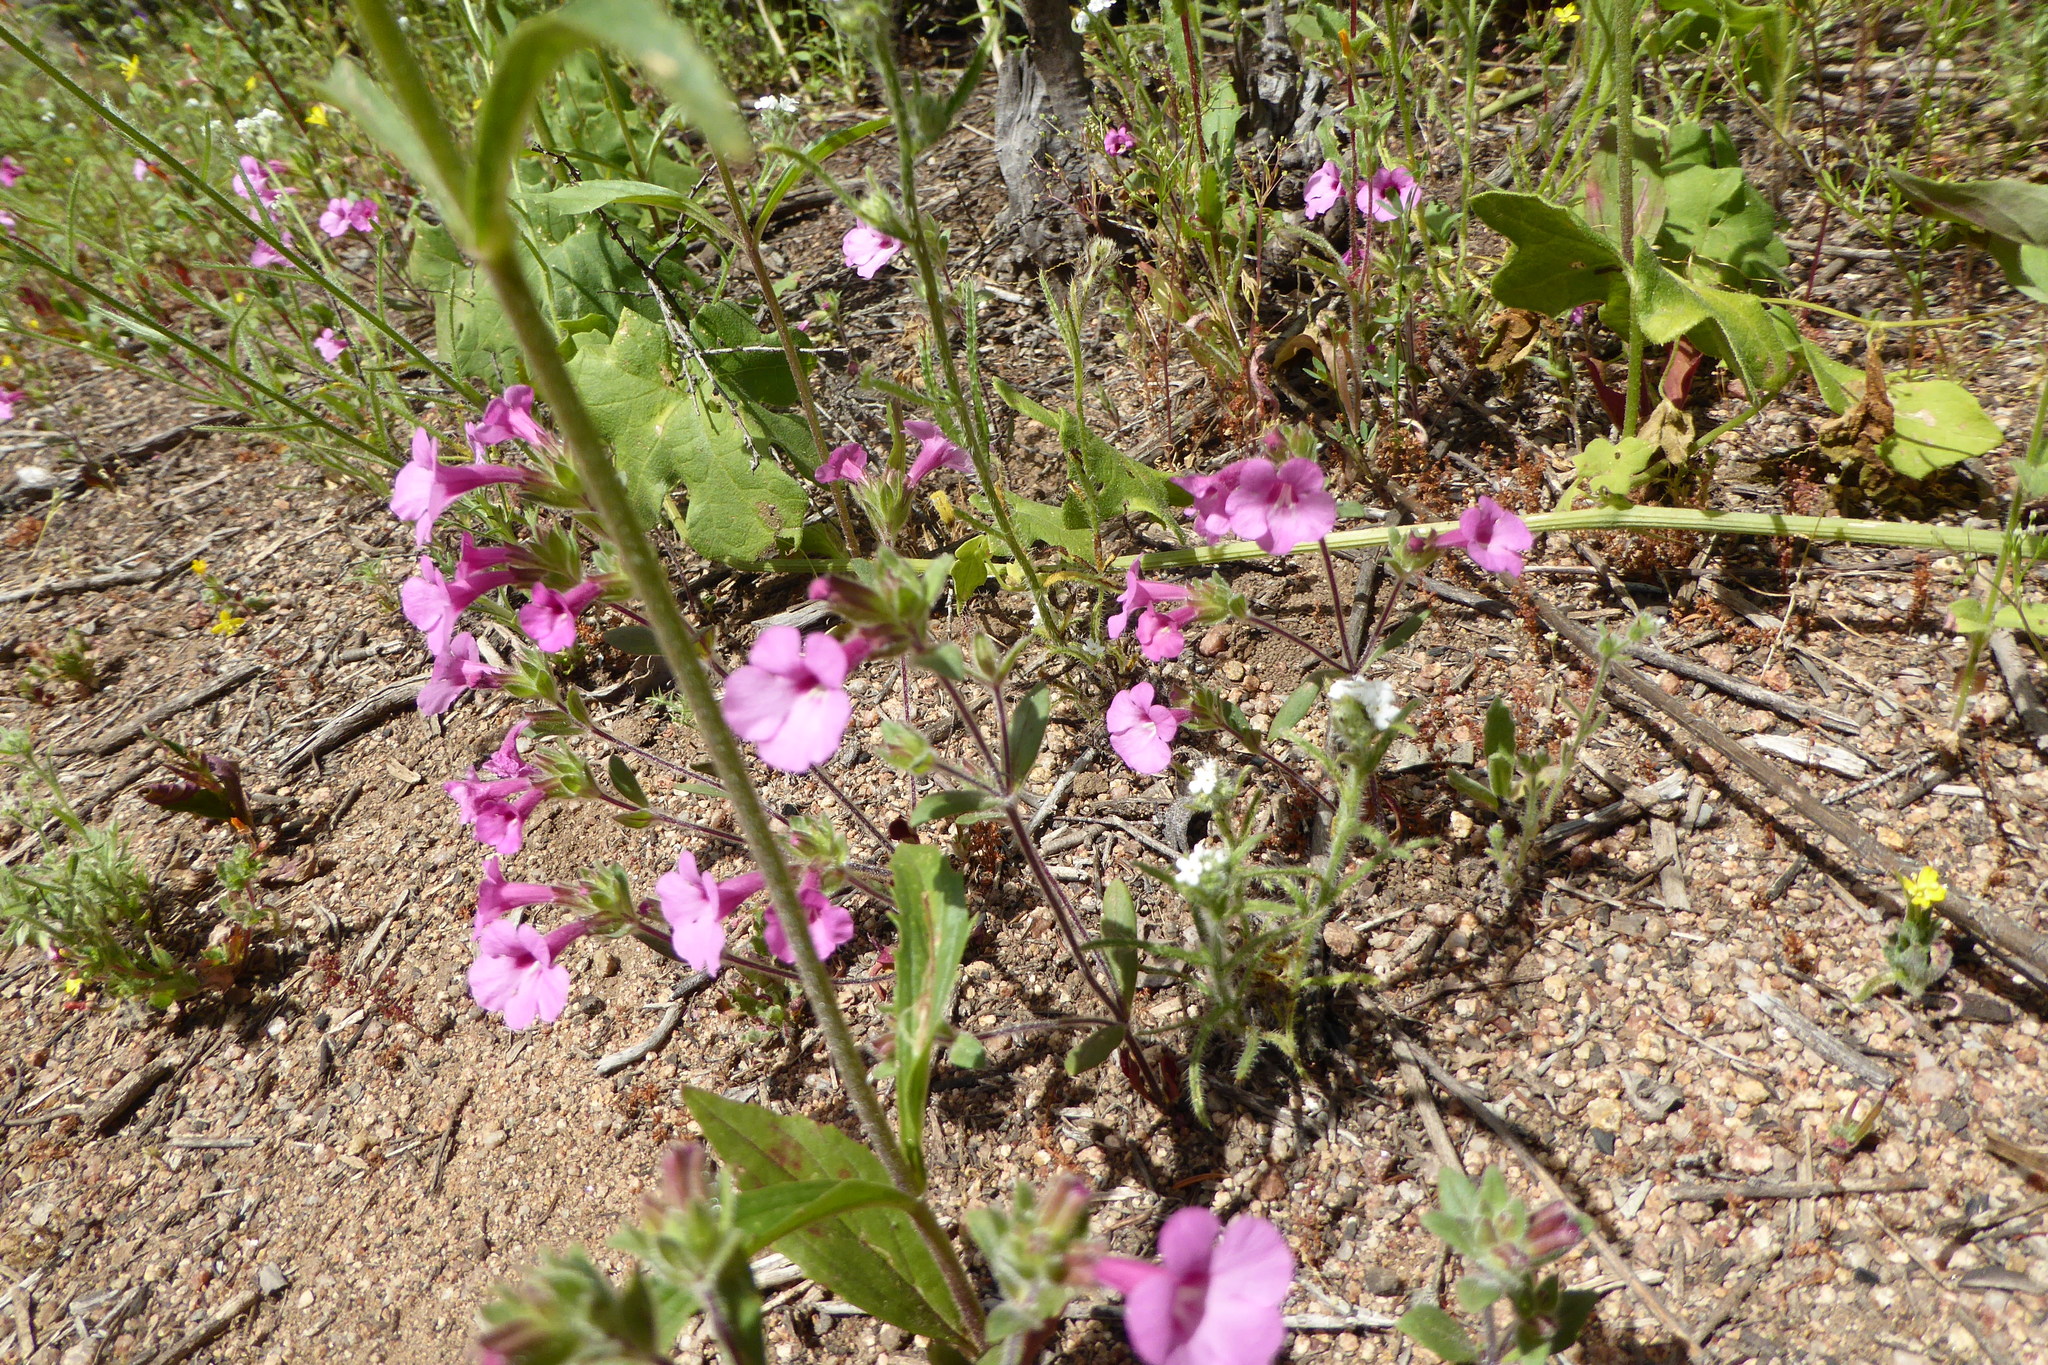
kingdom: Plantae
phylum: Tracheophyta
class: Magnoliopsida
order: Lamiales
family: Phrymaceae
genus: Diplacus
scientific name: Diplacus fremontii
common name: Fremont's monkey-flower
